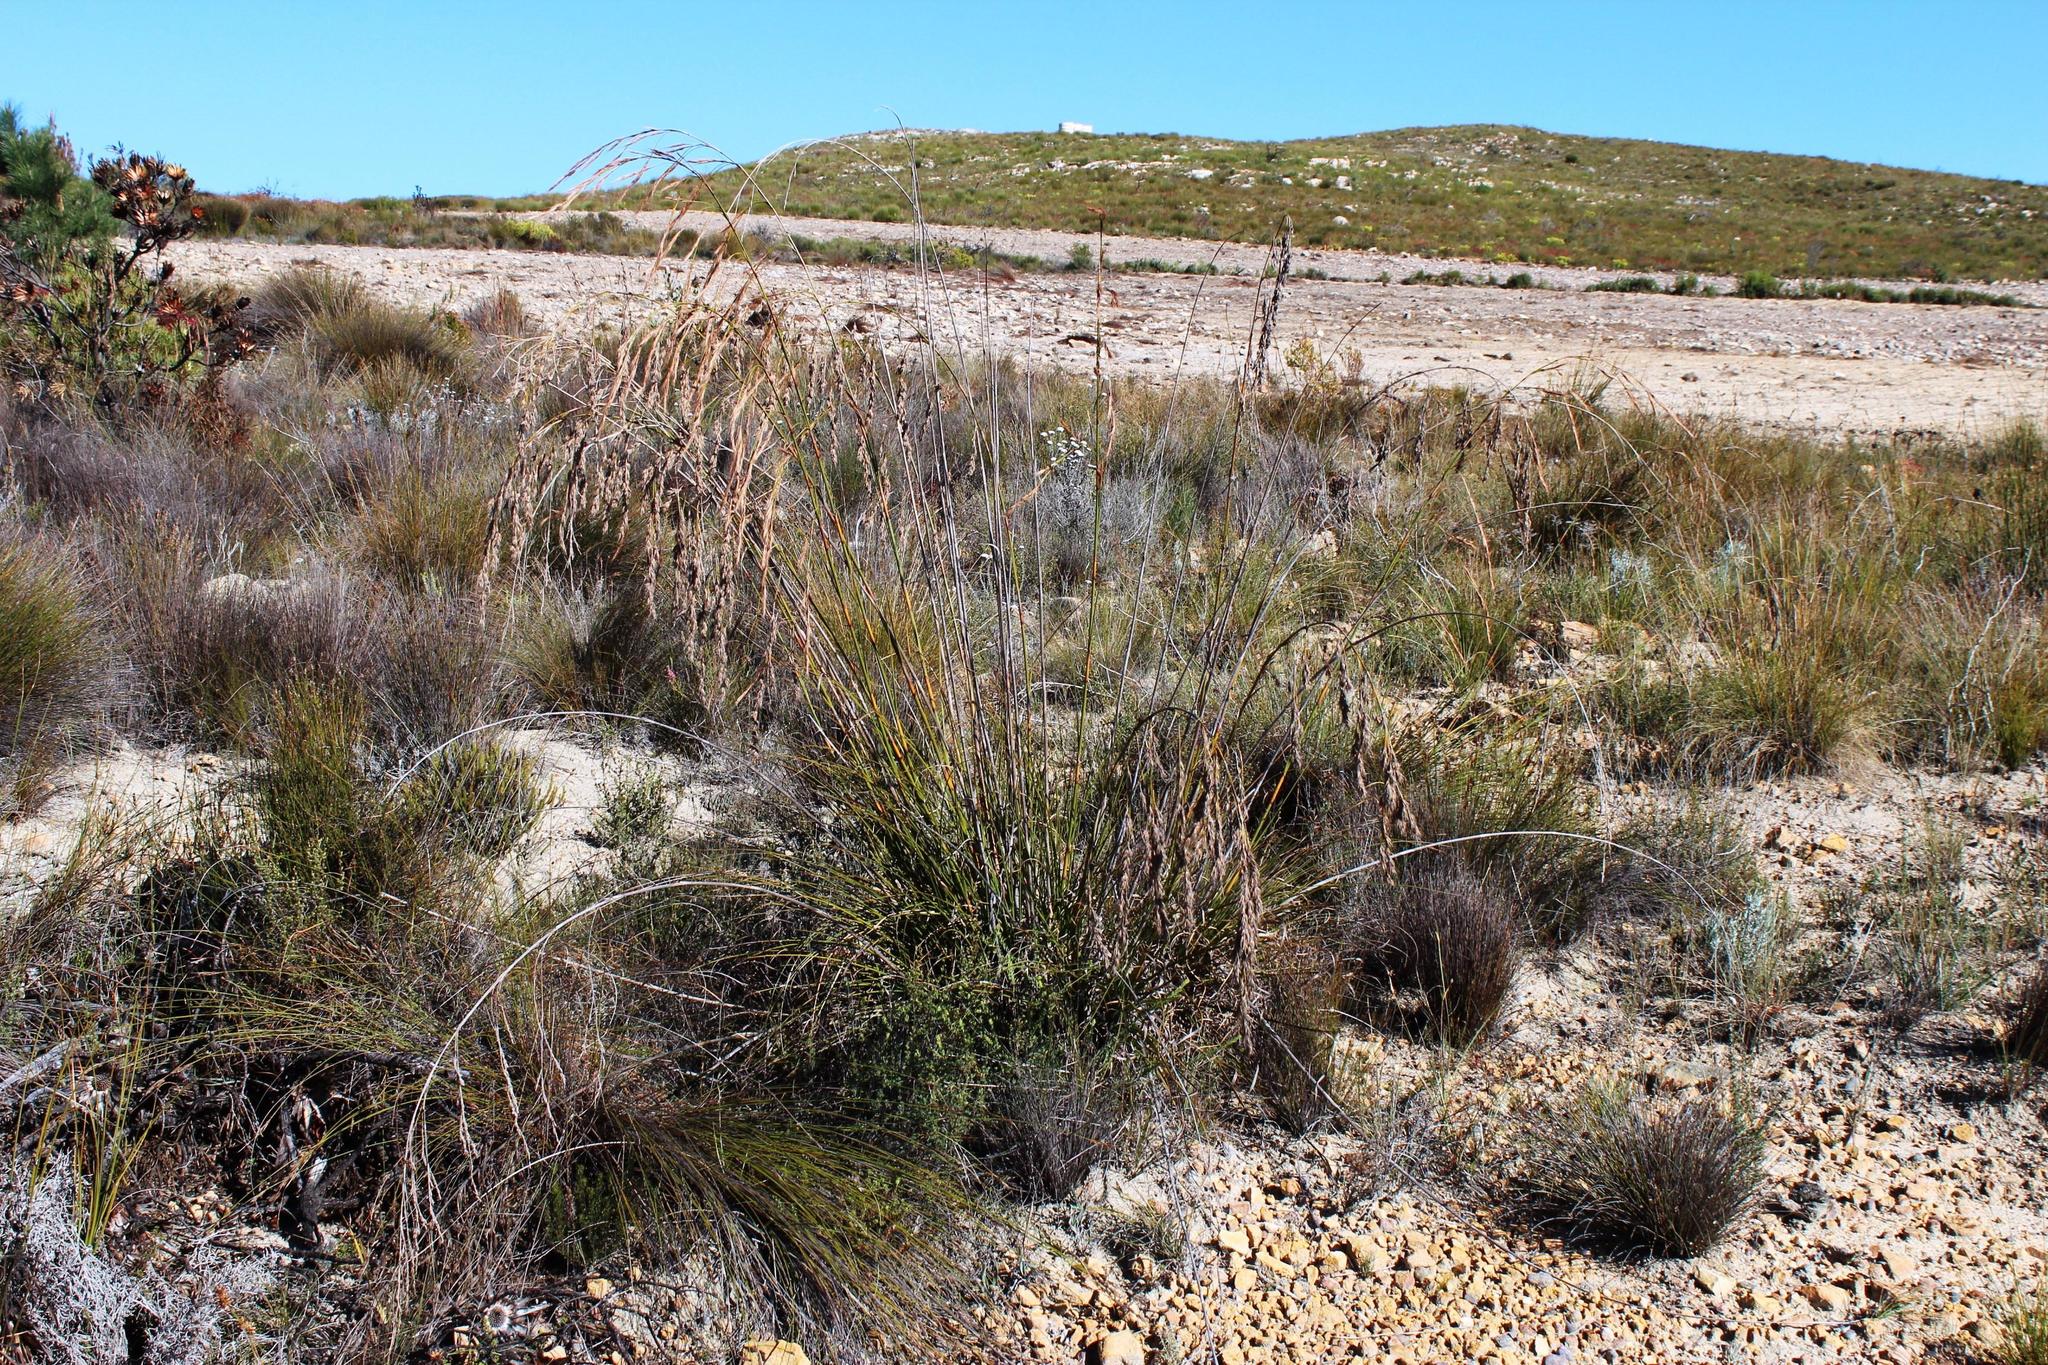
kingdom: Plantae
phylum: Tracheophyta
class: Liliopsida
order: Poales
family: Cyperaceae
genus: Tetraria
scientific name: Tetraria involucrata
